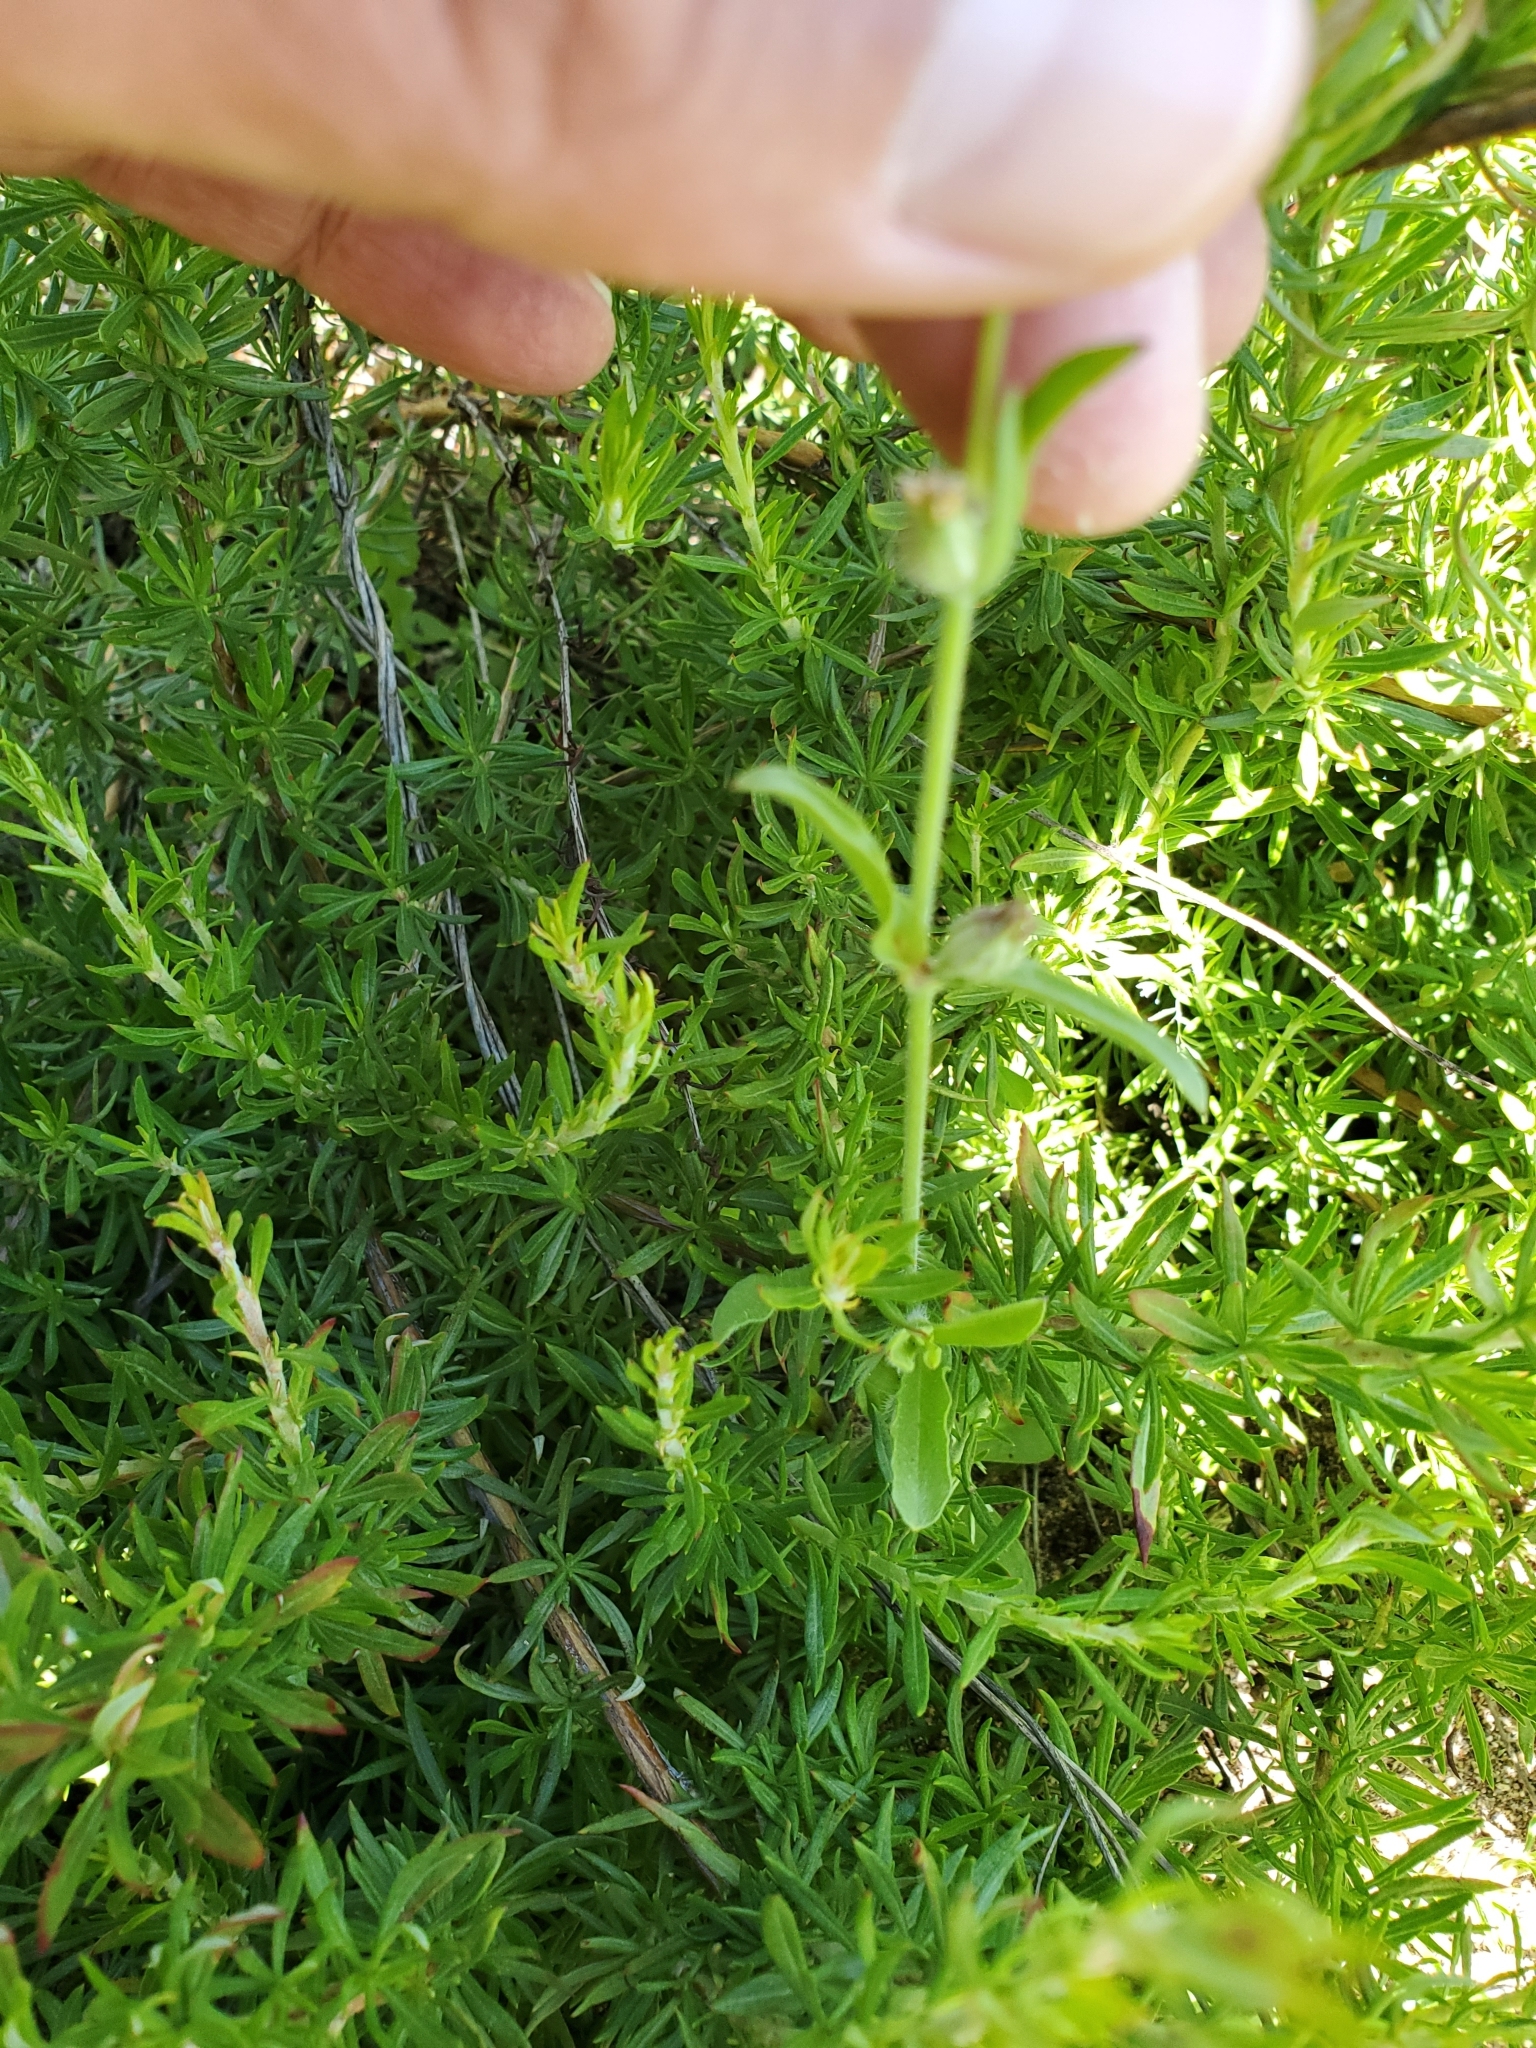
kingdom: Plantae
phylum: Tracheophyta
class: Magnoliopsida
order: Caryophyllales
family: Caryophyllaceae
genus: Silene
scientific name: Silene gallica
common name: Small-flowered catchfly
